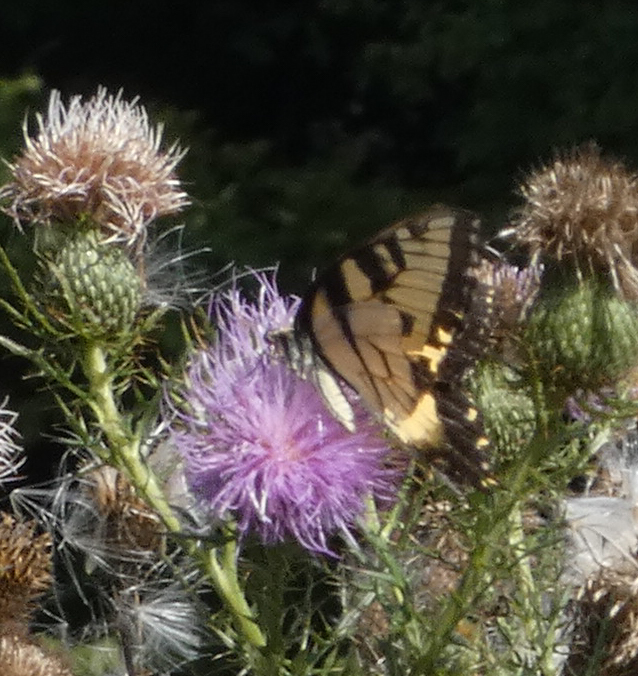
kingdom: Animalia
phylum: Arthropoda
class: Insecta
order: Lepidoptera
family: Papilionidae
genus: Papilio
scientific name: Papilio glaucus
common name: Tiger swallowtail
